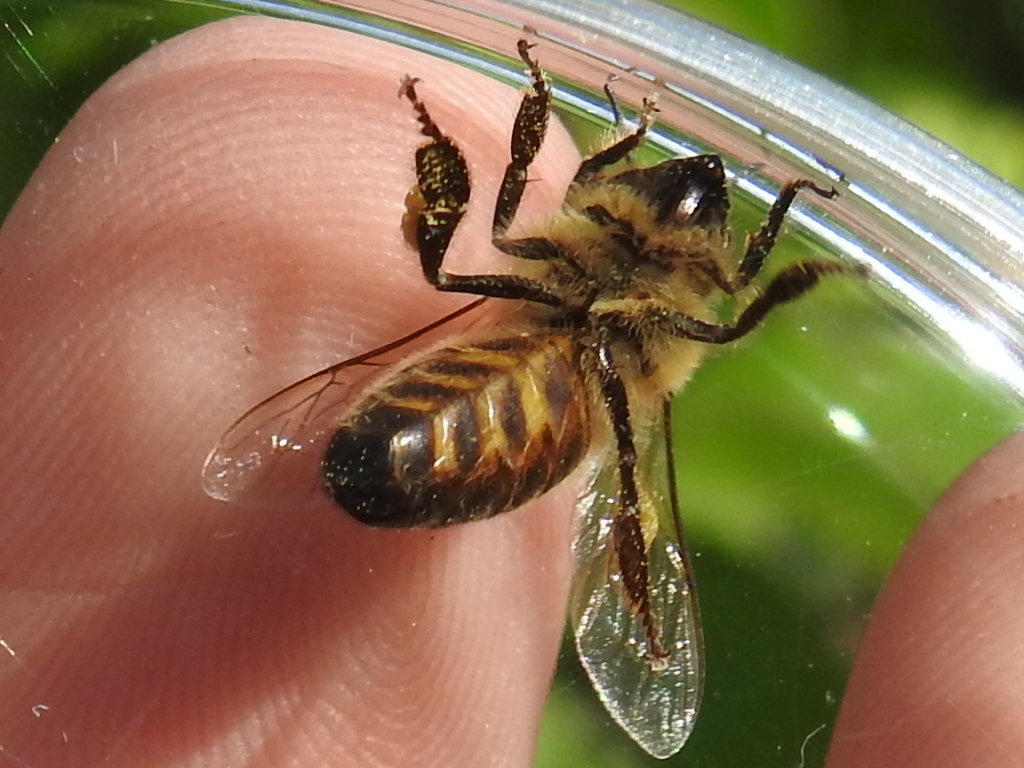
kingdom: Animalia
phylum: Arthropoda
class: Insecta
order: Hymenoptera
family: Apidae
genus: Apis
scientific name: Apis mellifera
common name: Honey bee
